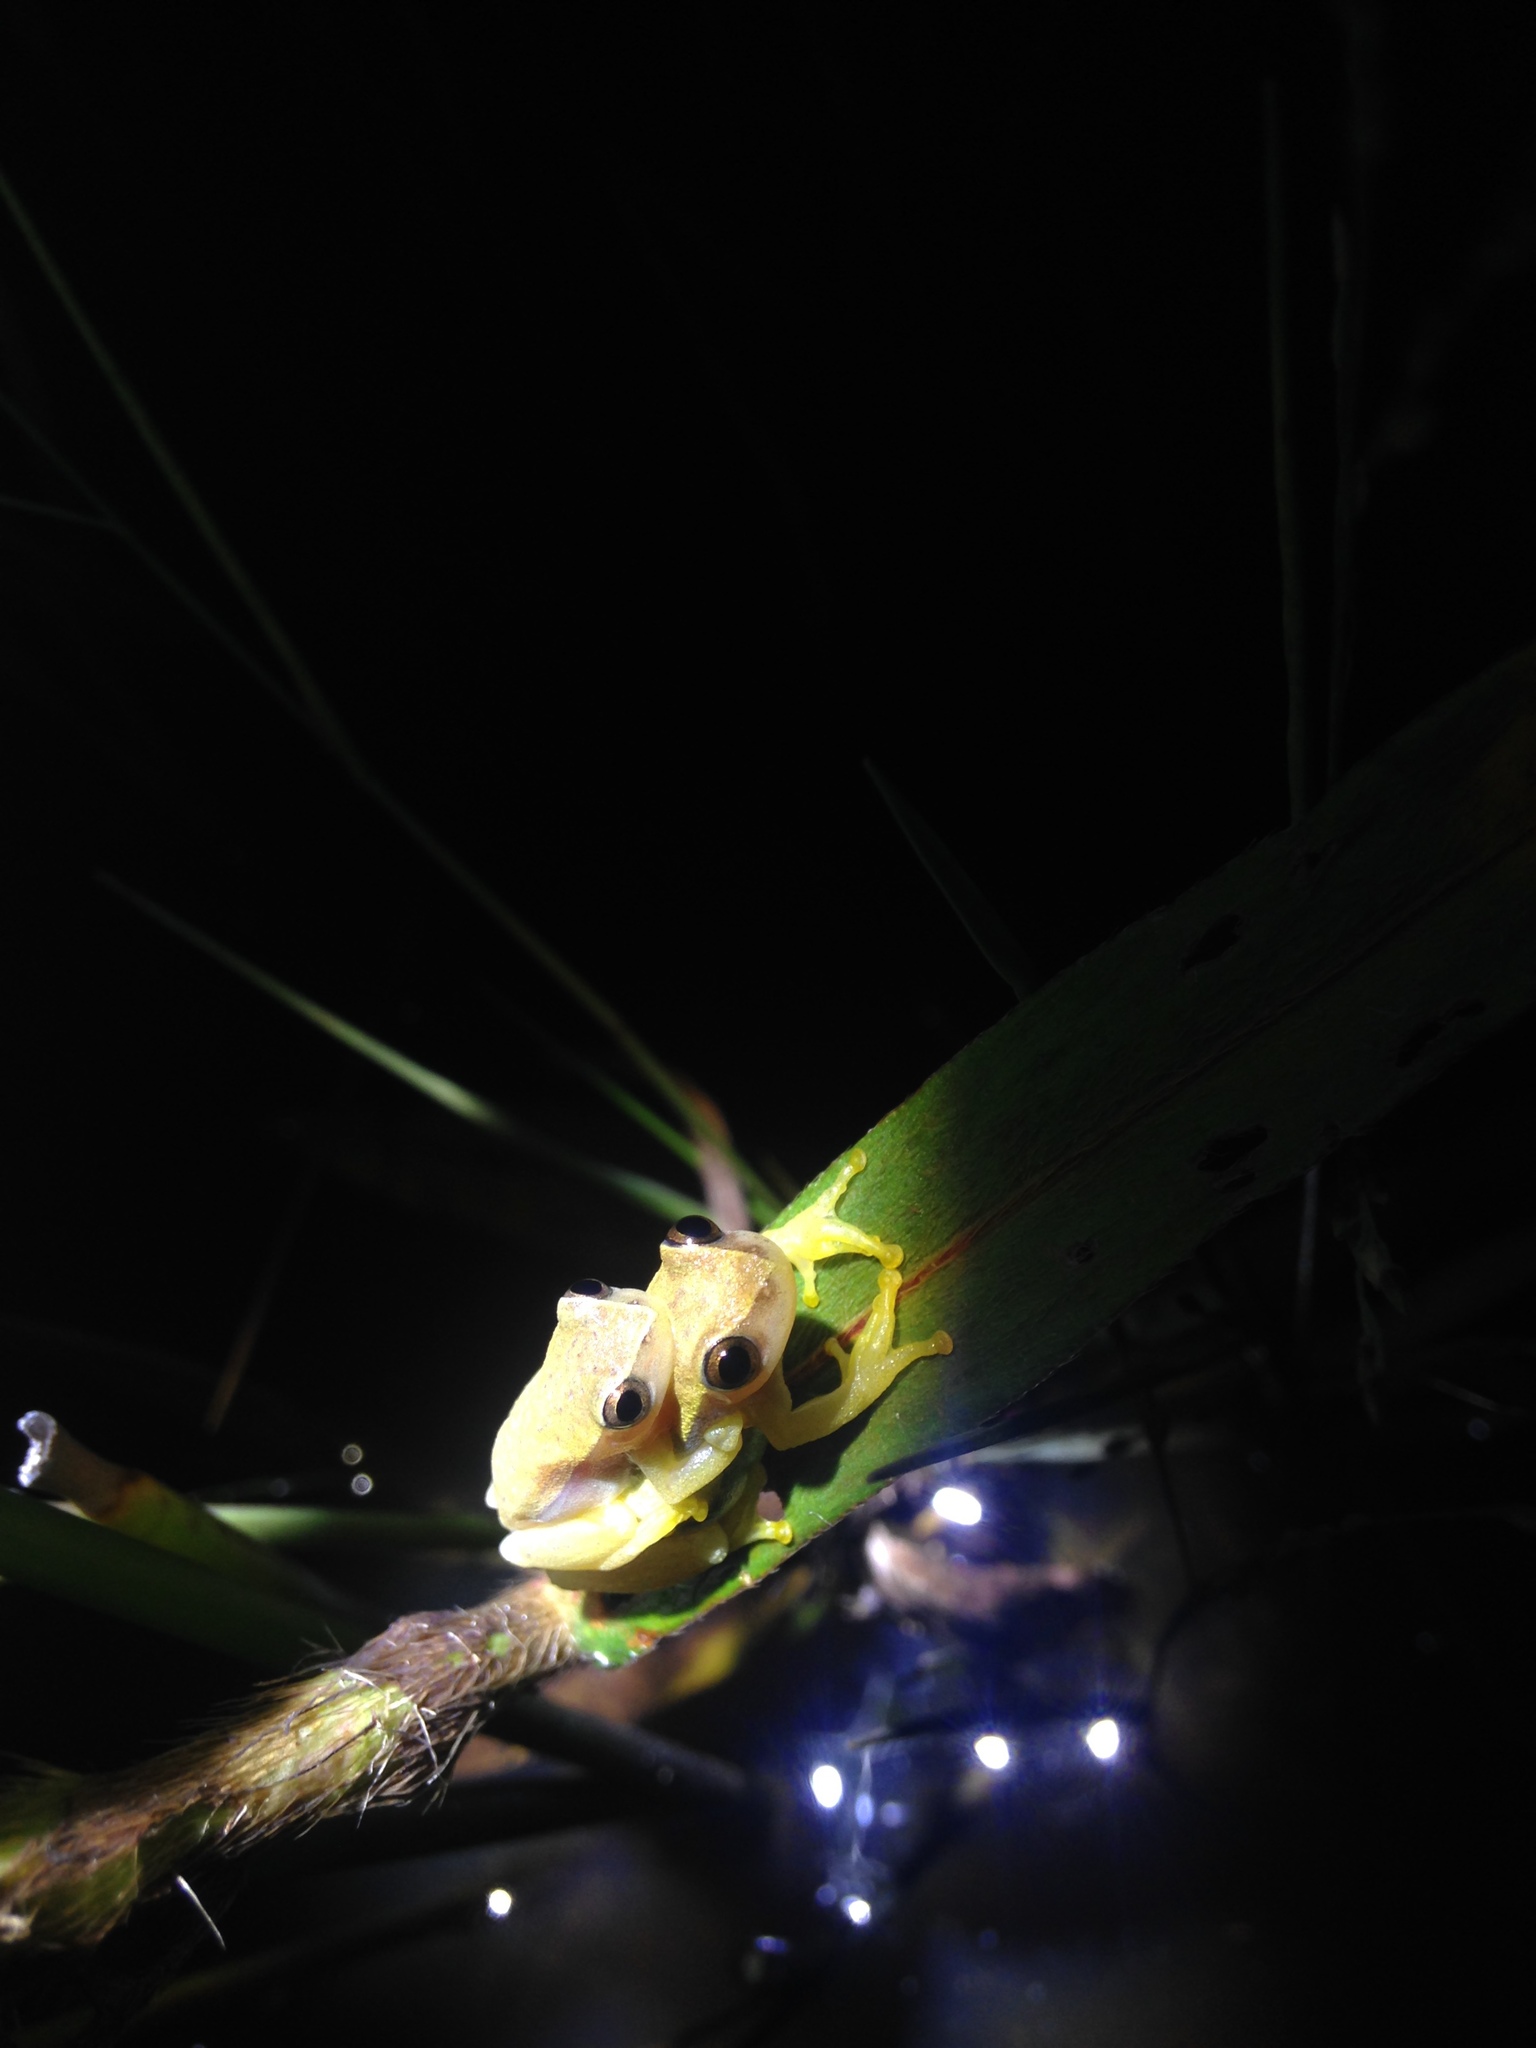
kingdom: Animalia
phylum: Chordata
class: Amphibia
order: Anura
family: Hylidae
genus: Dendropsophus
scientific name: Dendropsophus nanus
